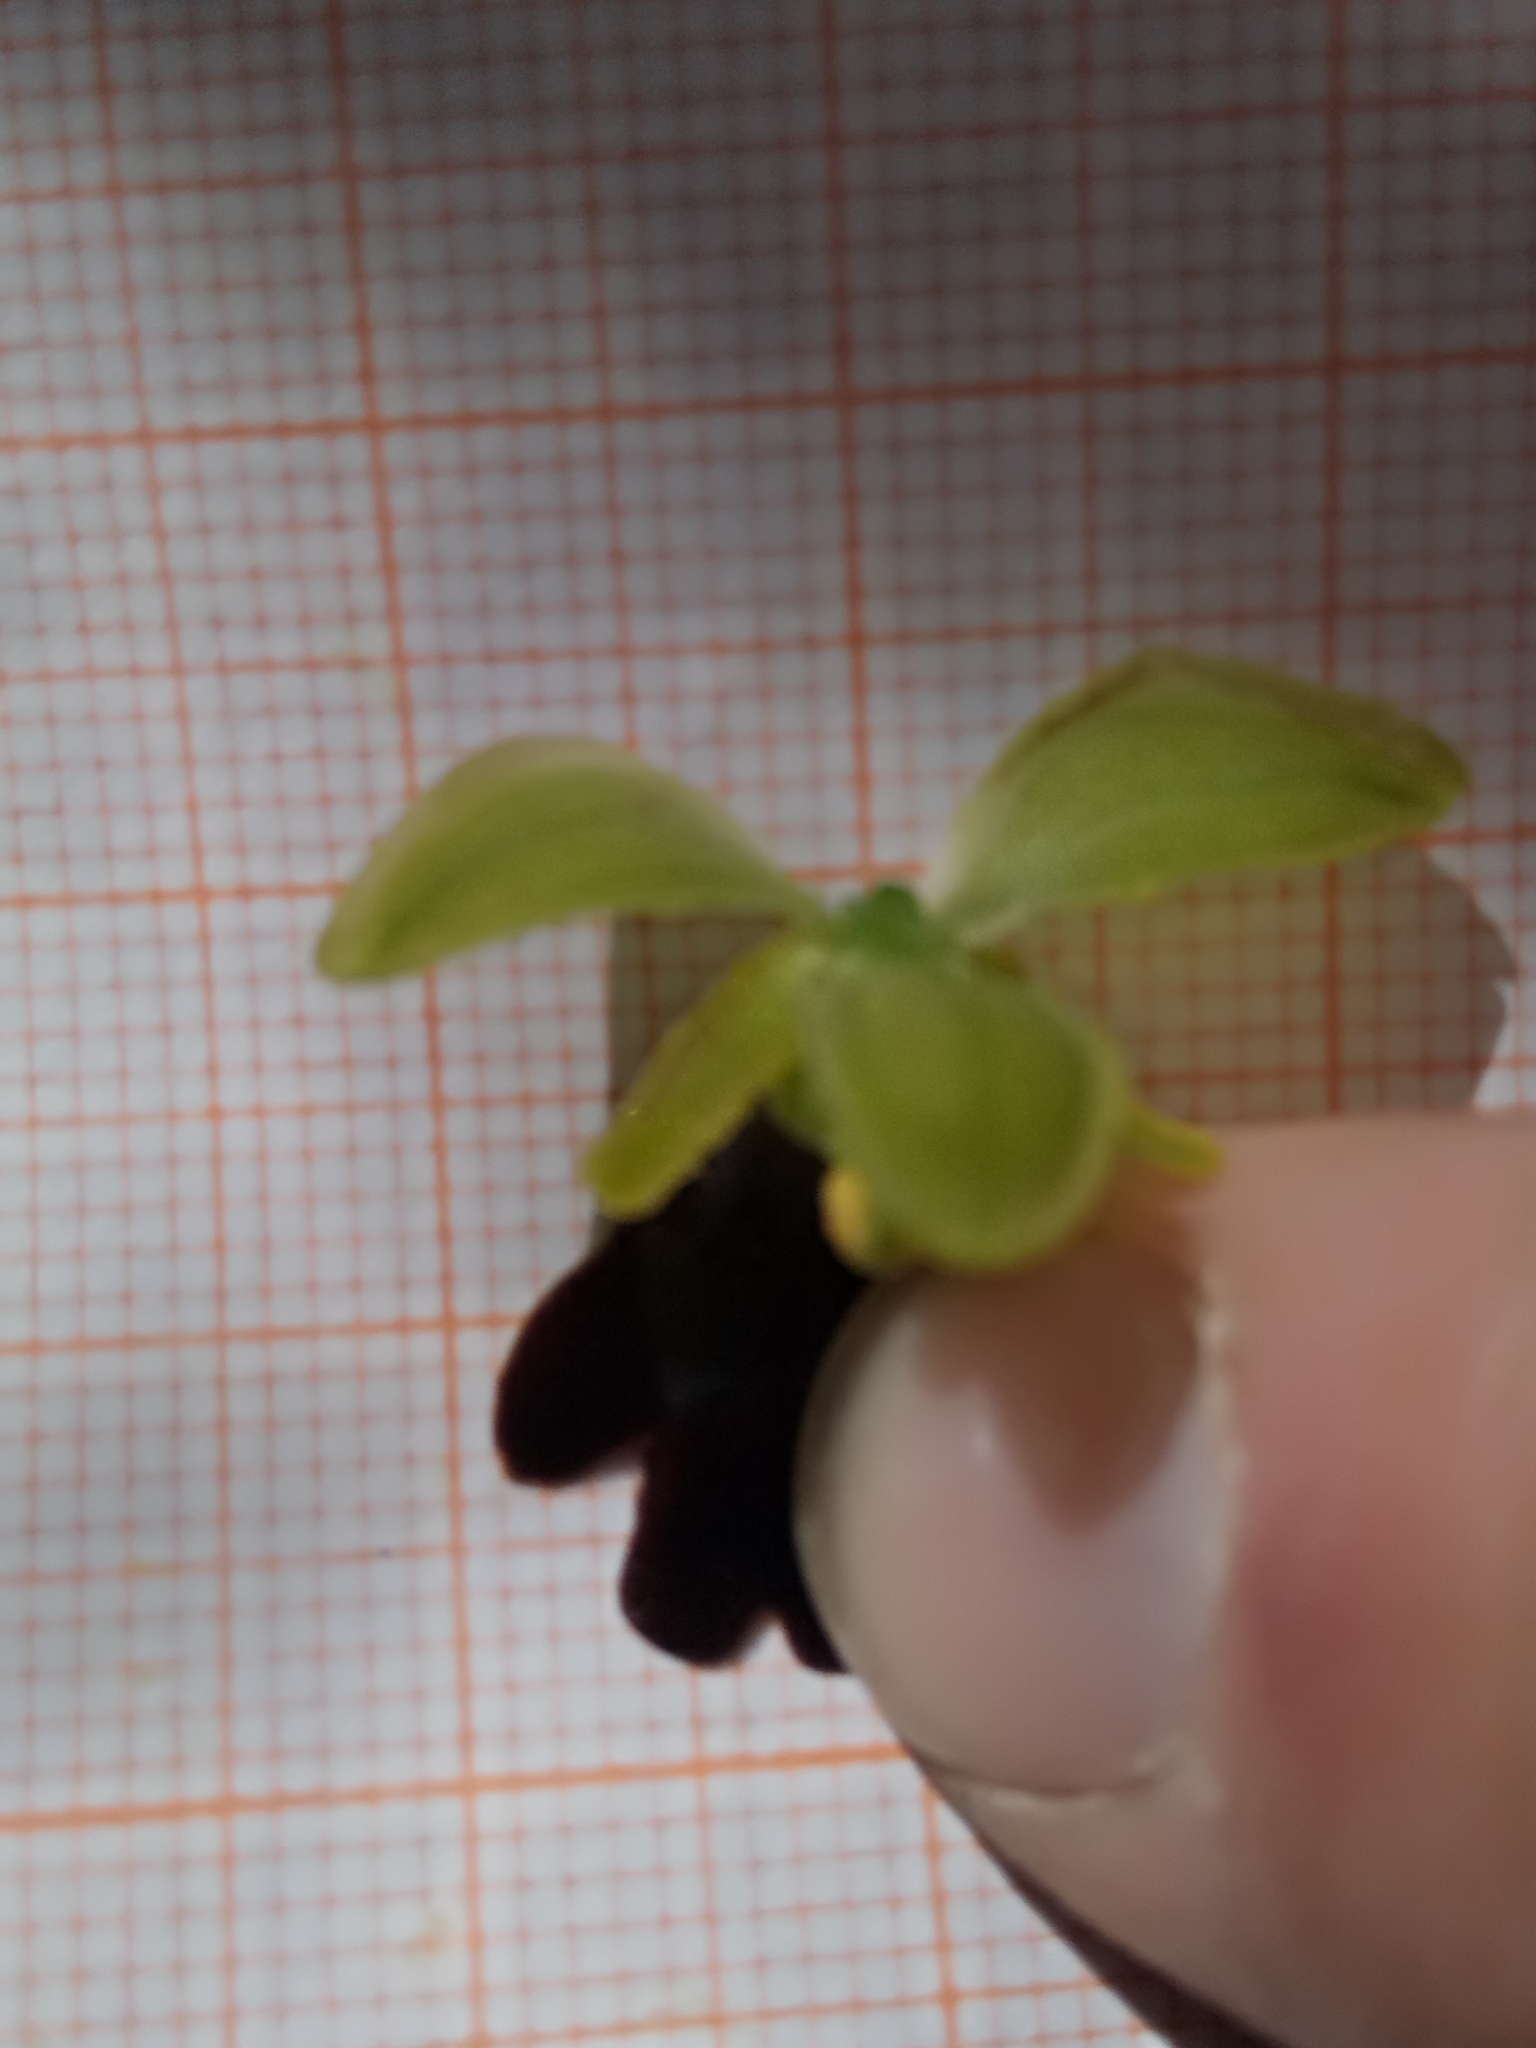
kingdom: Plantae
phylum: Tracheophyta
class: Liliopsida
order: Asparagales
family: Orchidaceae
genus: Ophrys
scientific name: Ophrys fusca
